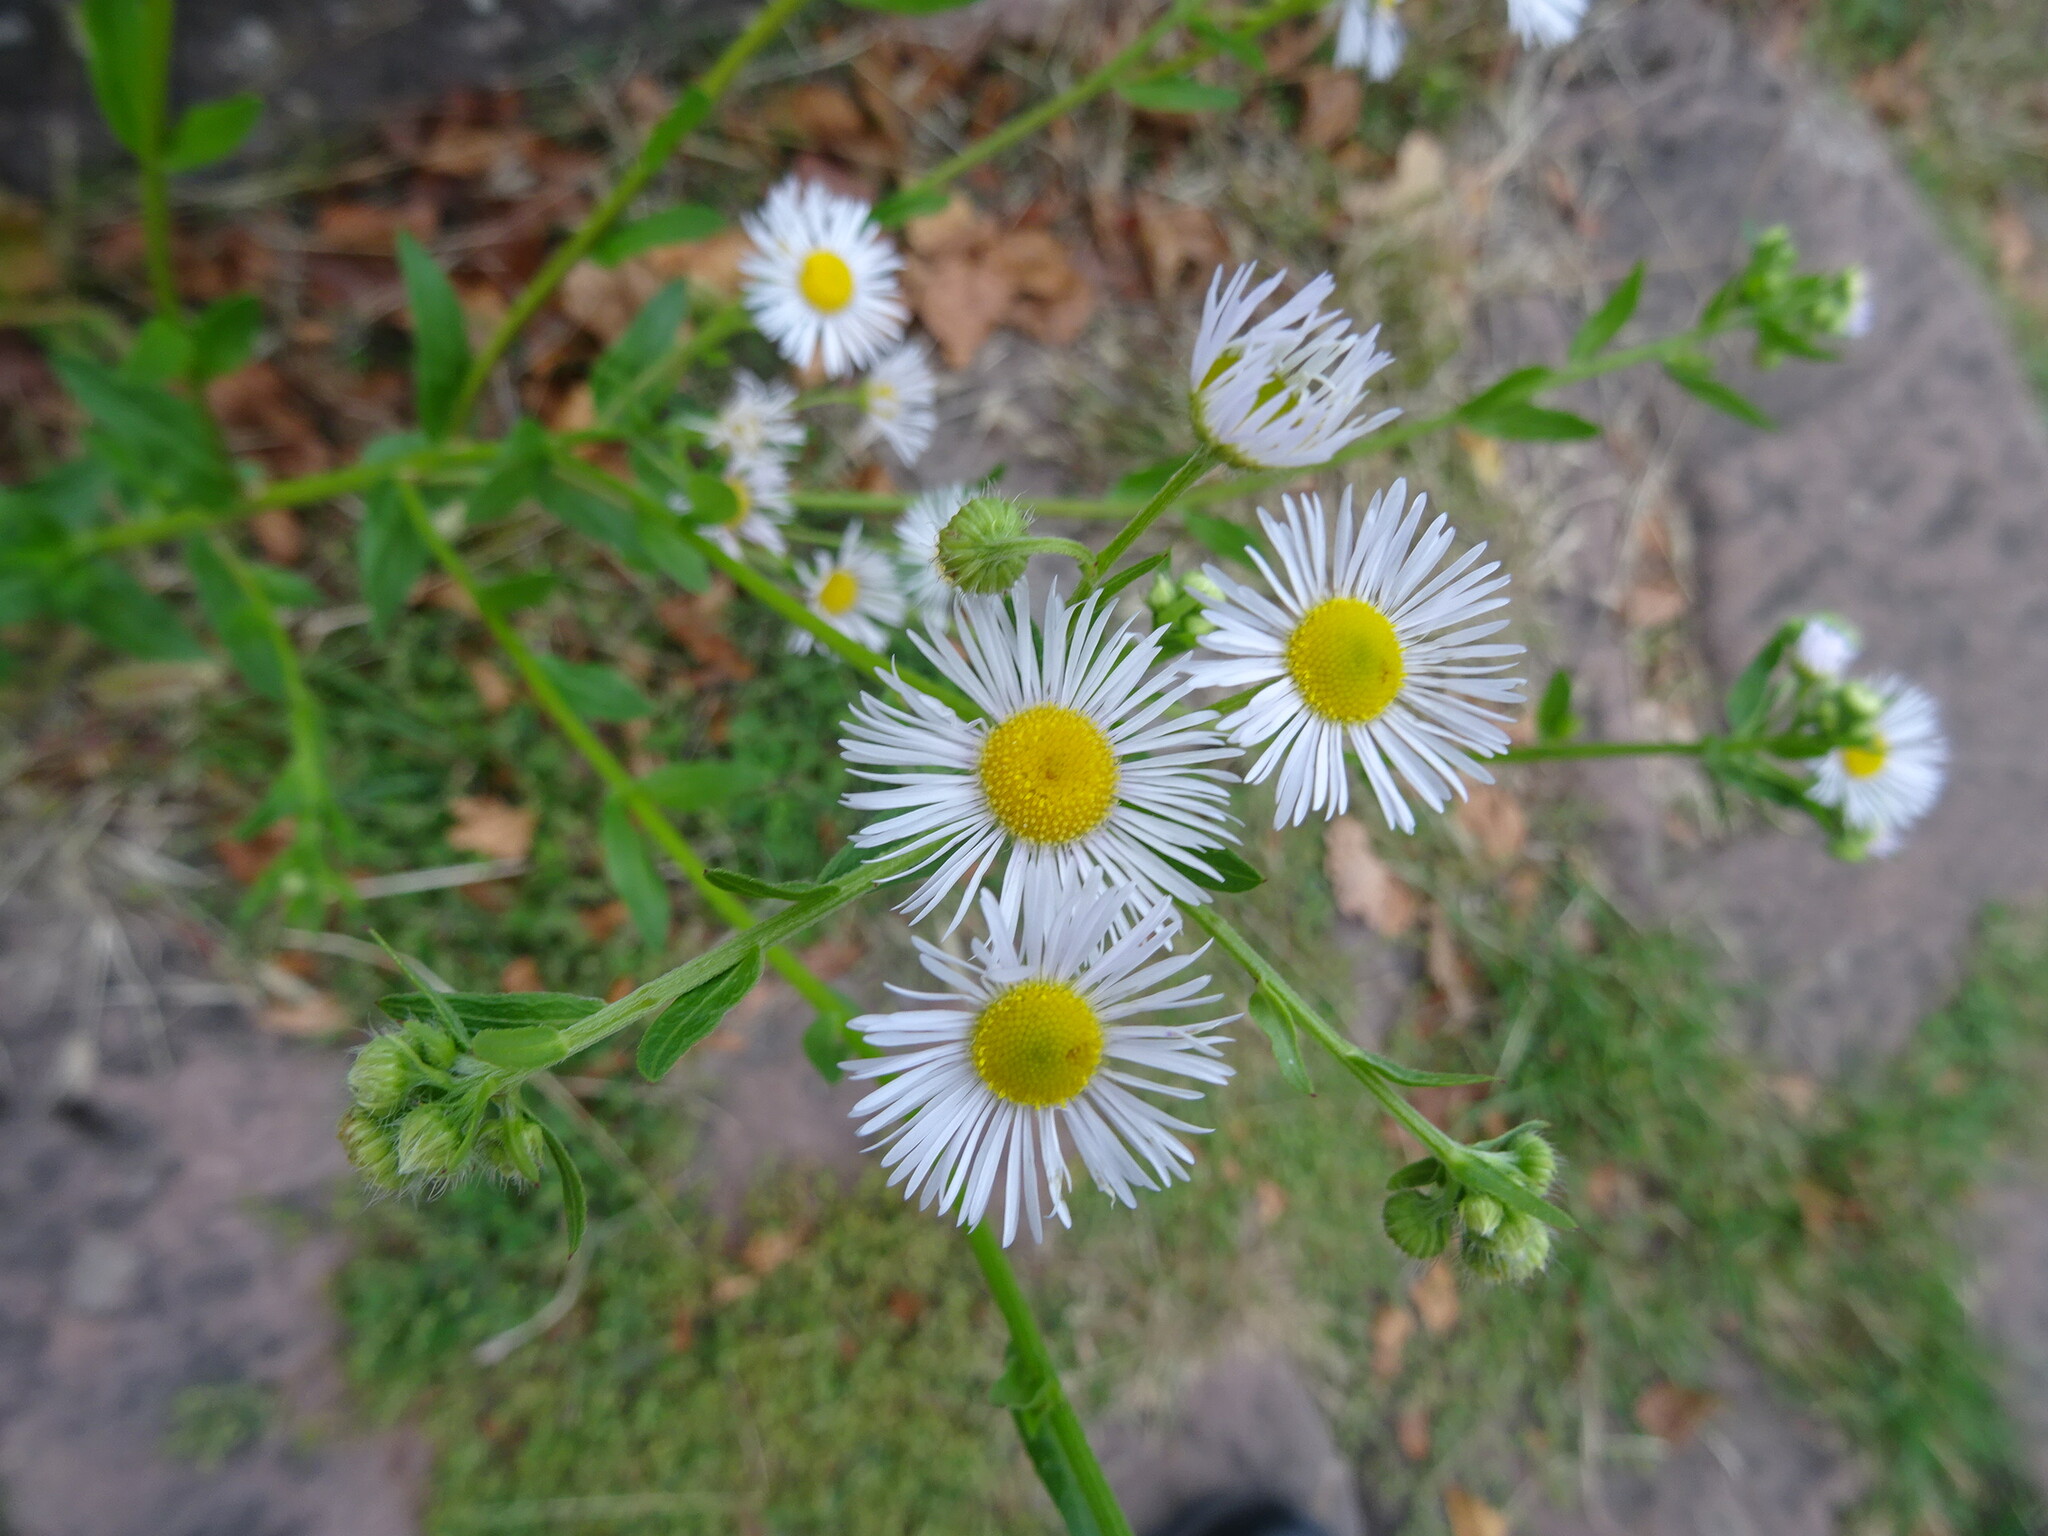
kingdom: Plantae
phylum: Tracheophyta
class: Magnoliopsida
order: Asterales
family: Asteraceae
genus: Erigeron
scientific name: Erigeron annuus
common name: Tall fleabane
